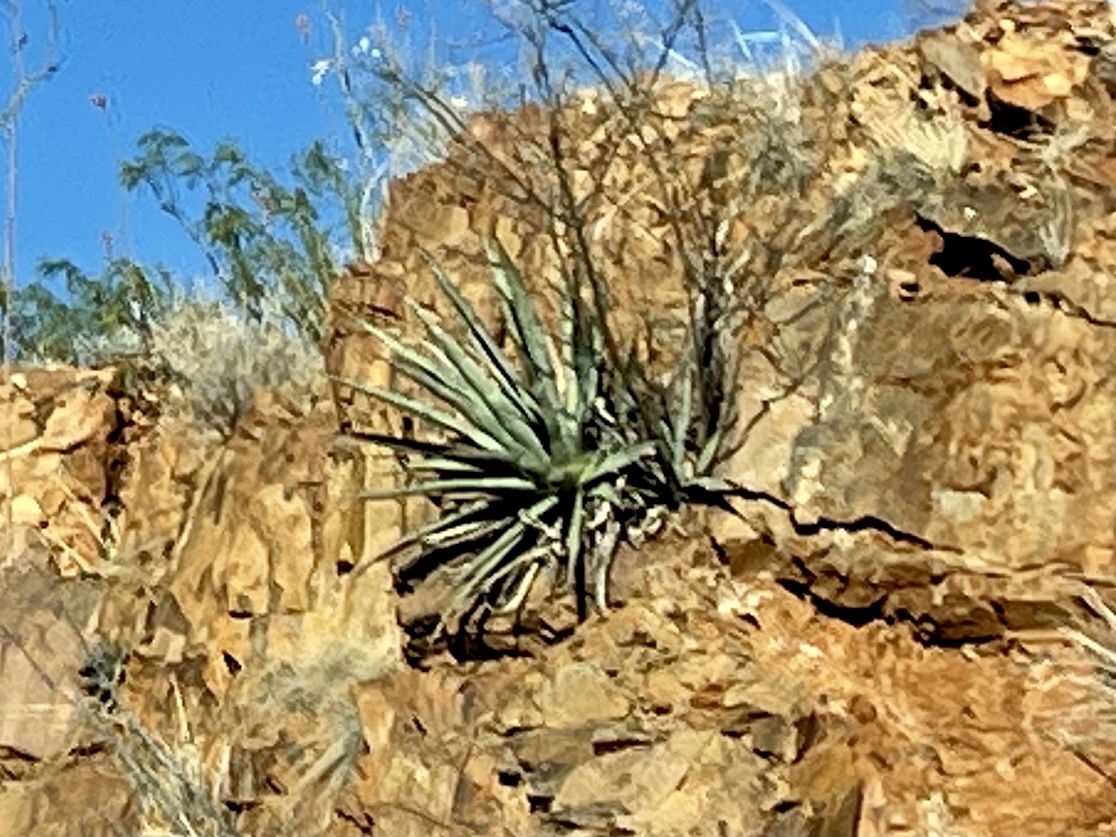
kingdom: Plantae
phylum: Tracheophyta
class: Liliopsida
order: Asparagales
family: Asparagaceae
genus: Agave
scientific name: Agave palmeri
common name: Palmer agave
